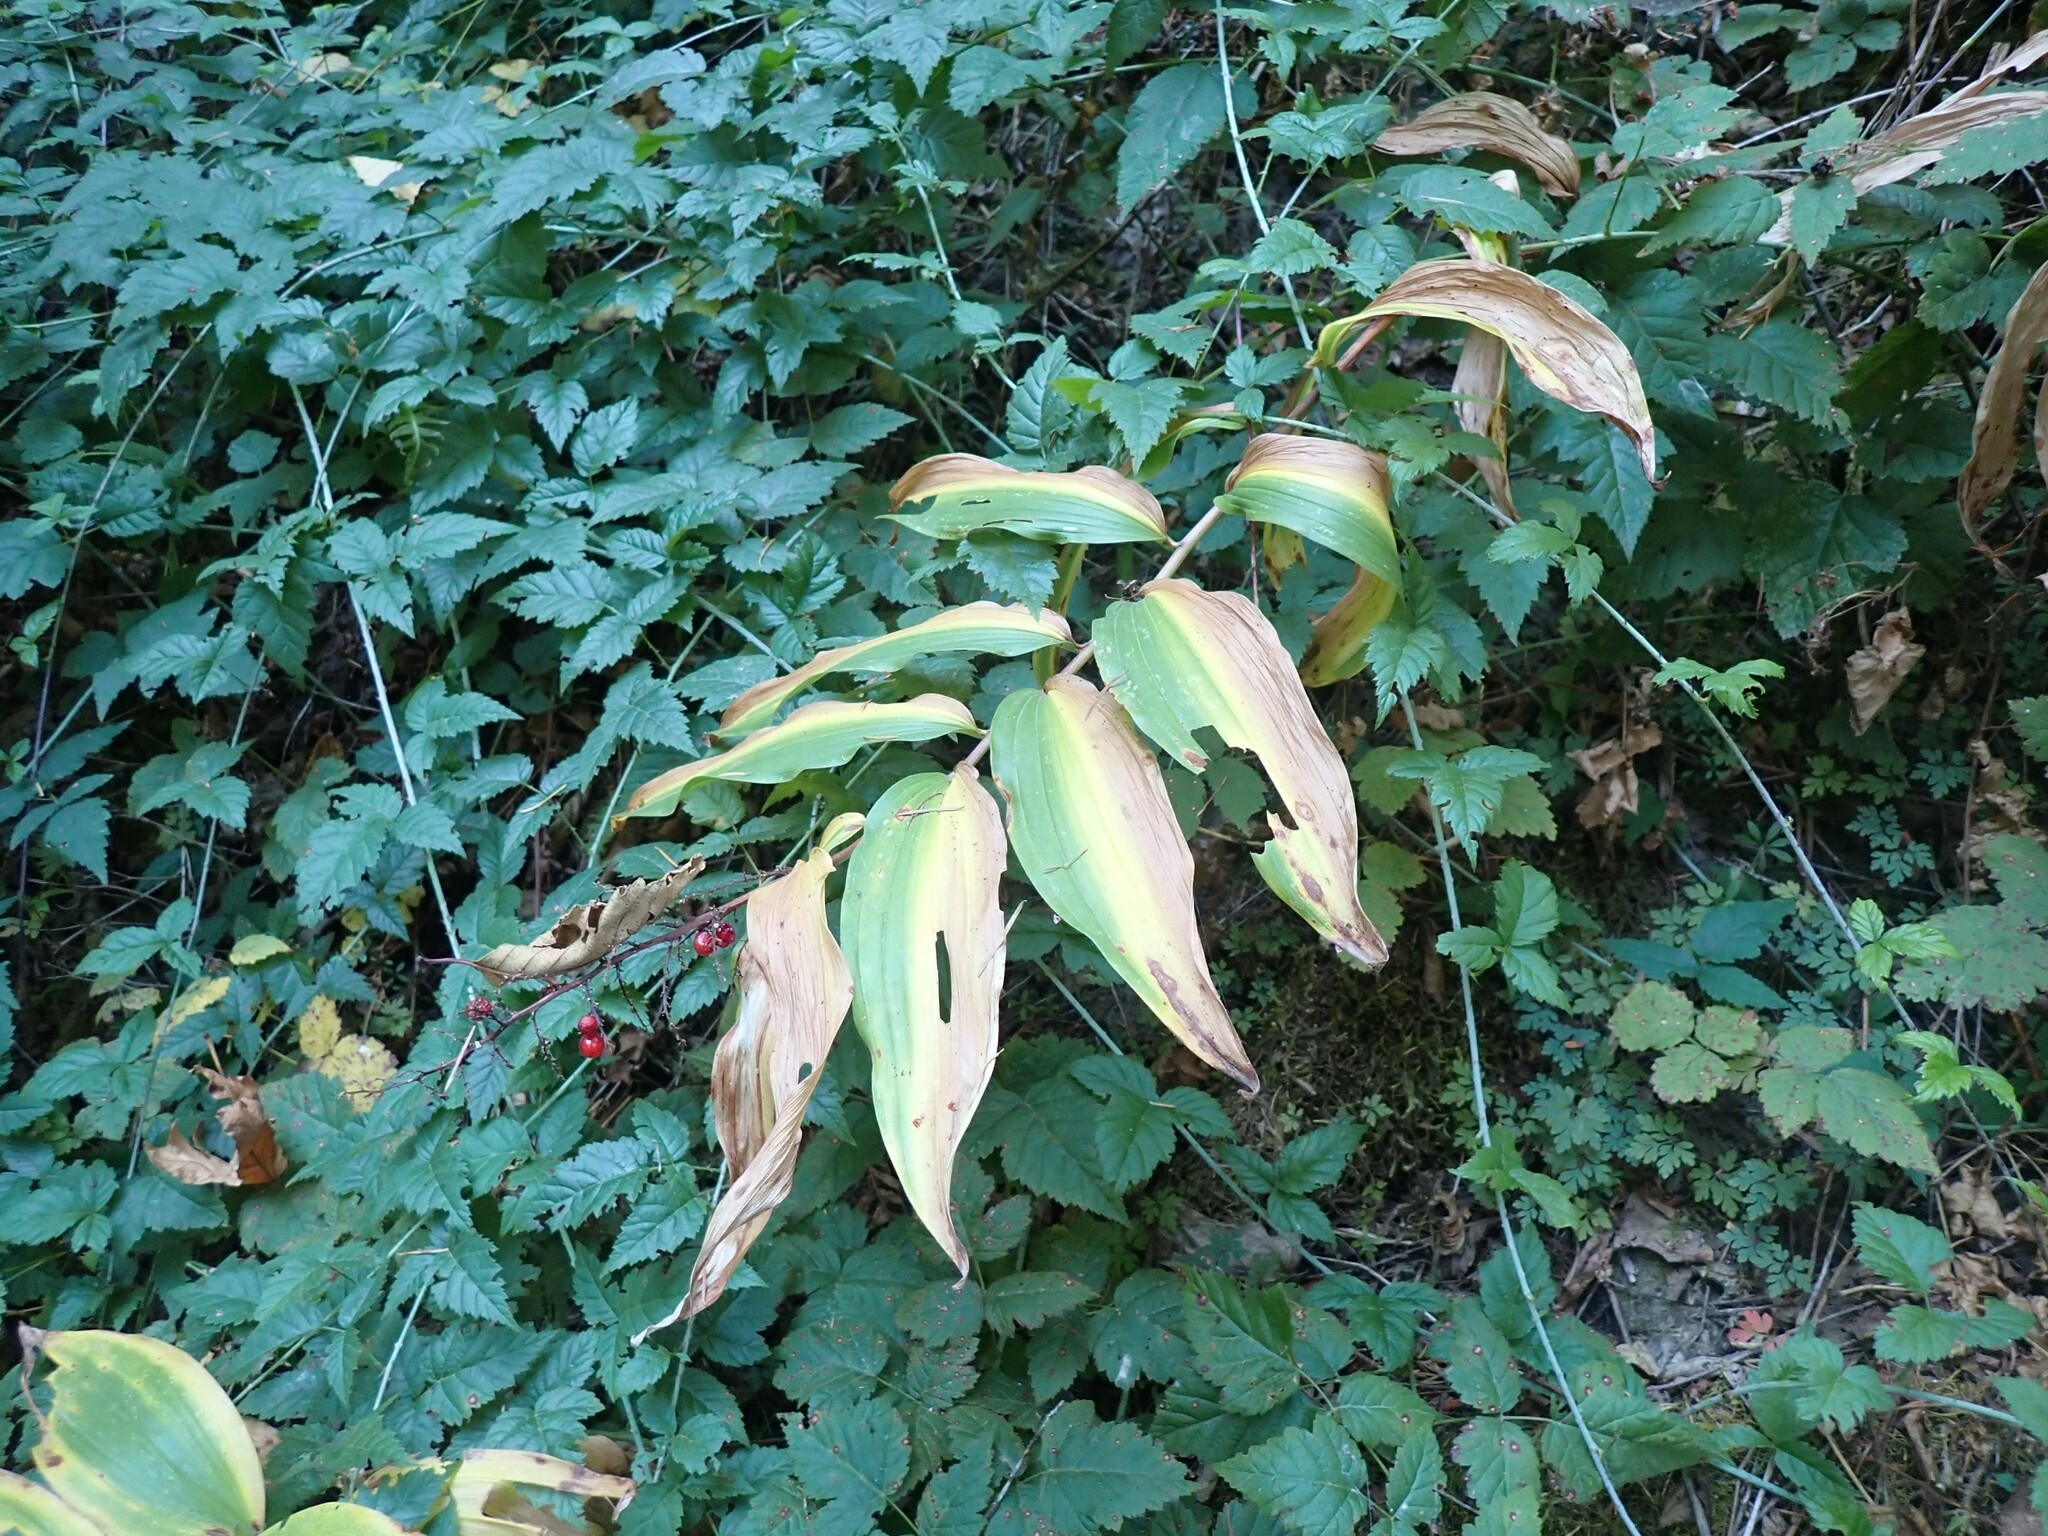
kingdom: Plantae
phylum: Tracheophyta
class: Liliopsida
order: Asparagales
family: Asparagaceae
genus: Maianthemum
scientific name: Maianthemum racemosum
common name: False spikenard
